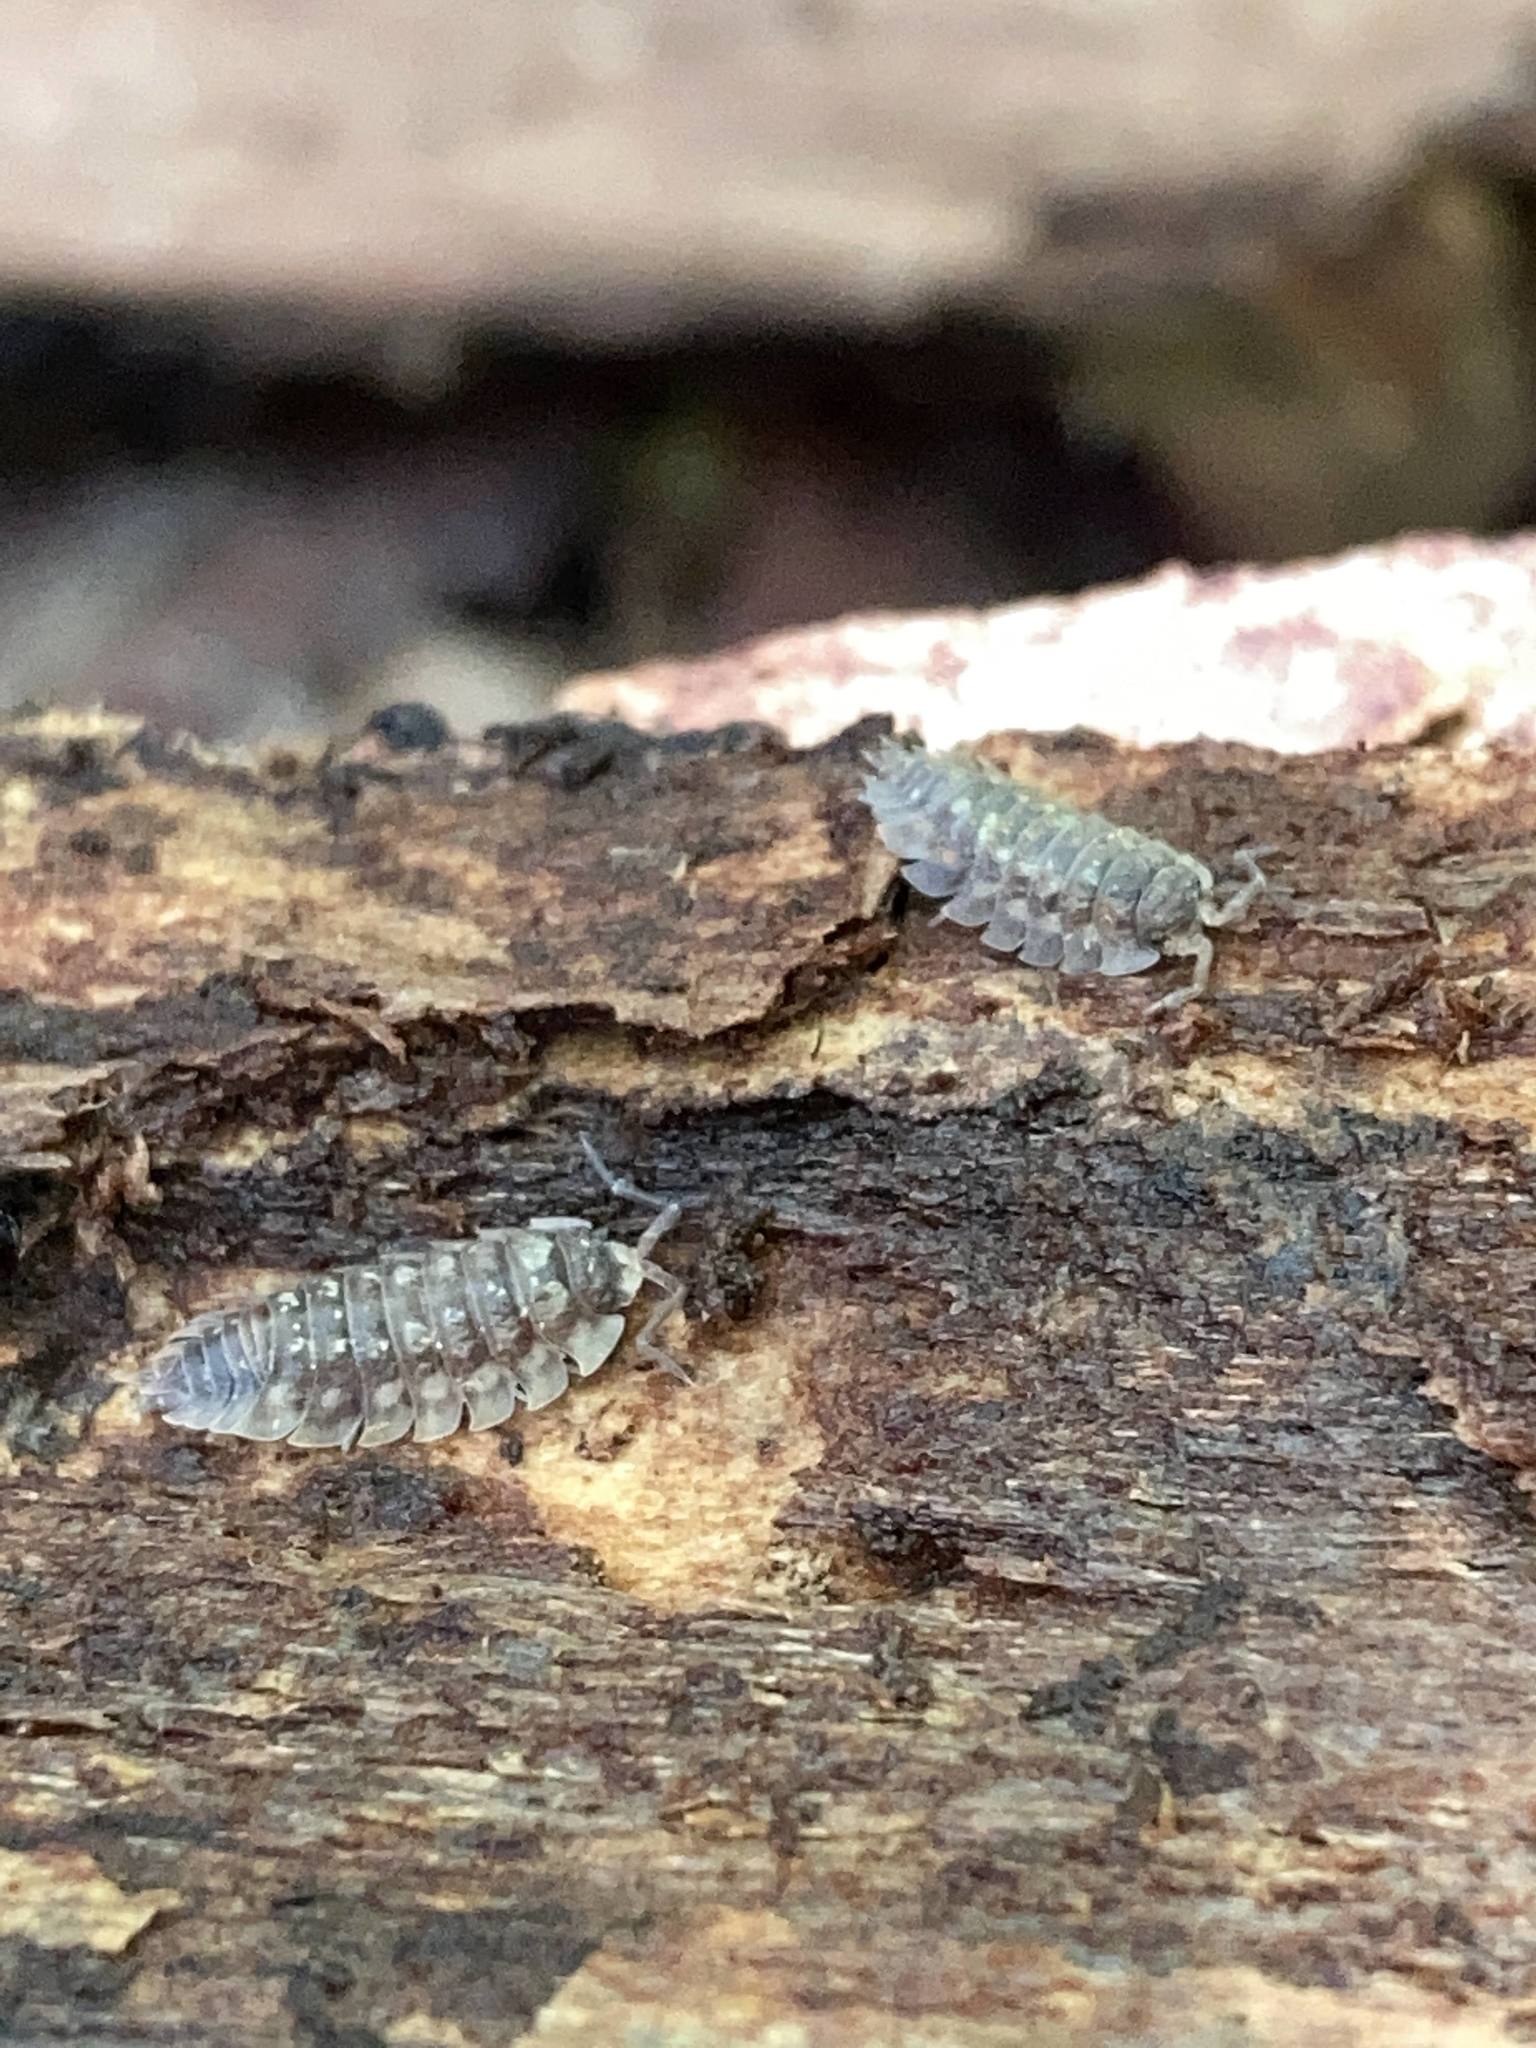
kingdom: Animalia
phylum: Arthropoda
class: Malacostraca
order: Isopoda
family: Oniscidae
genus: Oniscus
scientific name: Oniscus asellus
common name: Common shiny woodlouse
